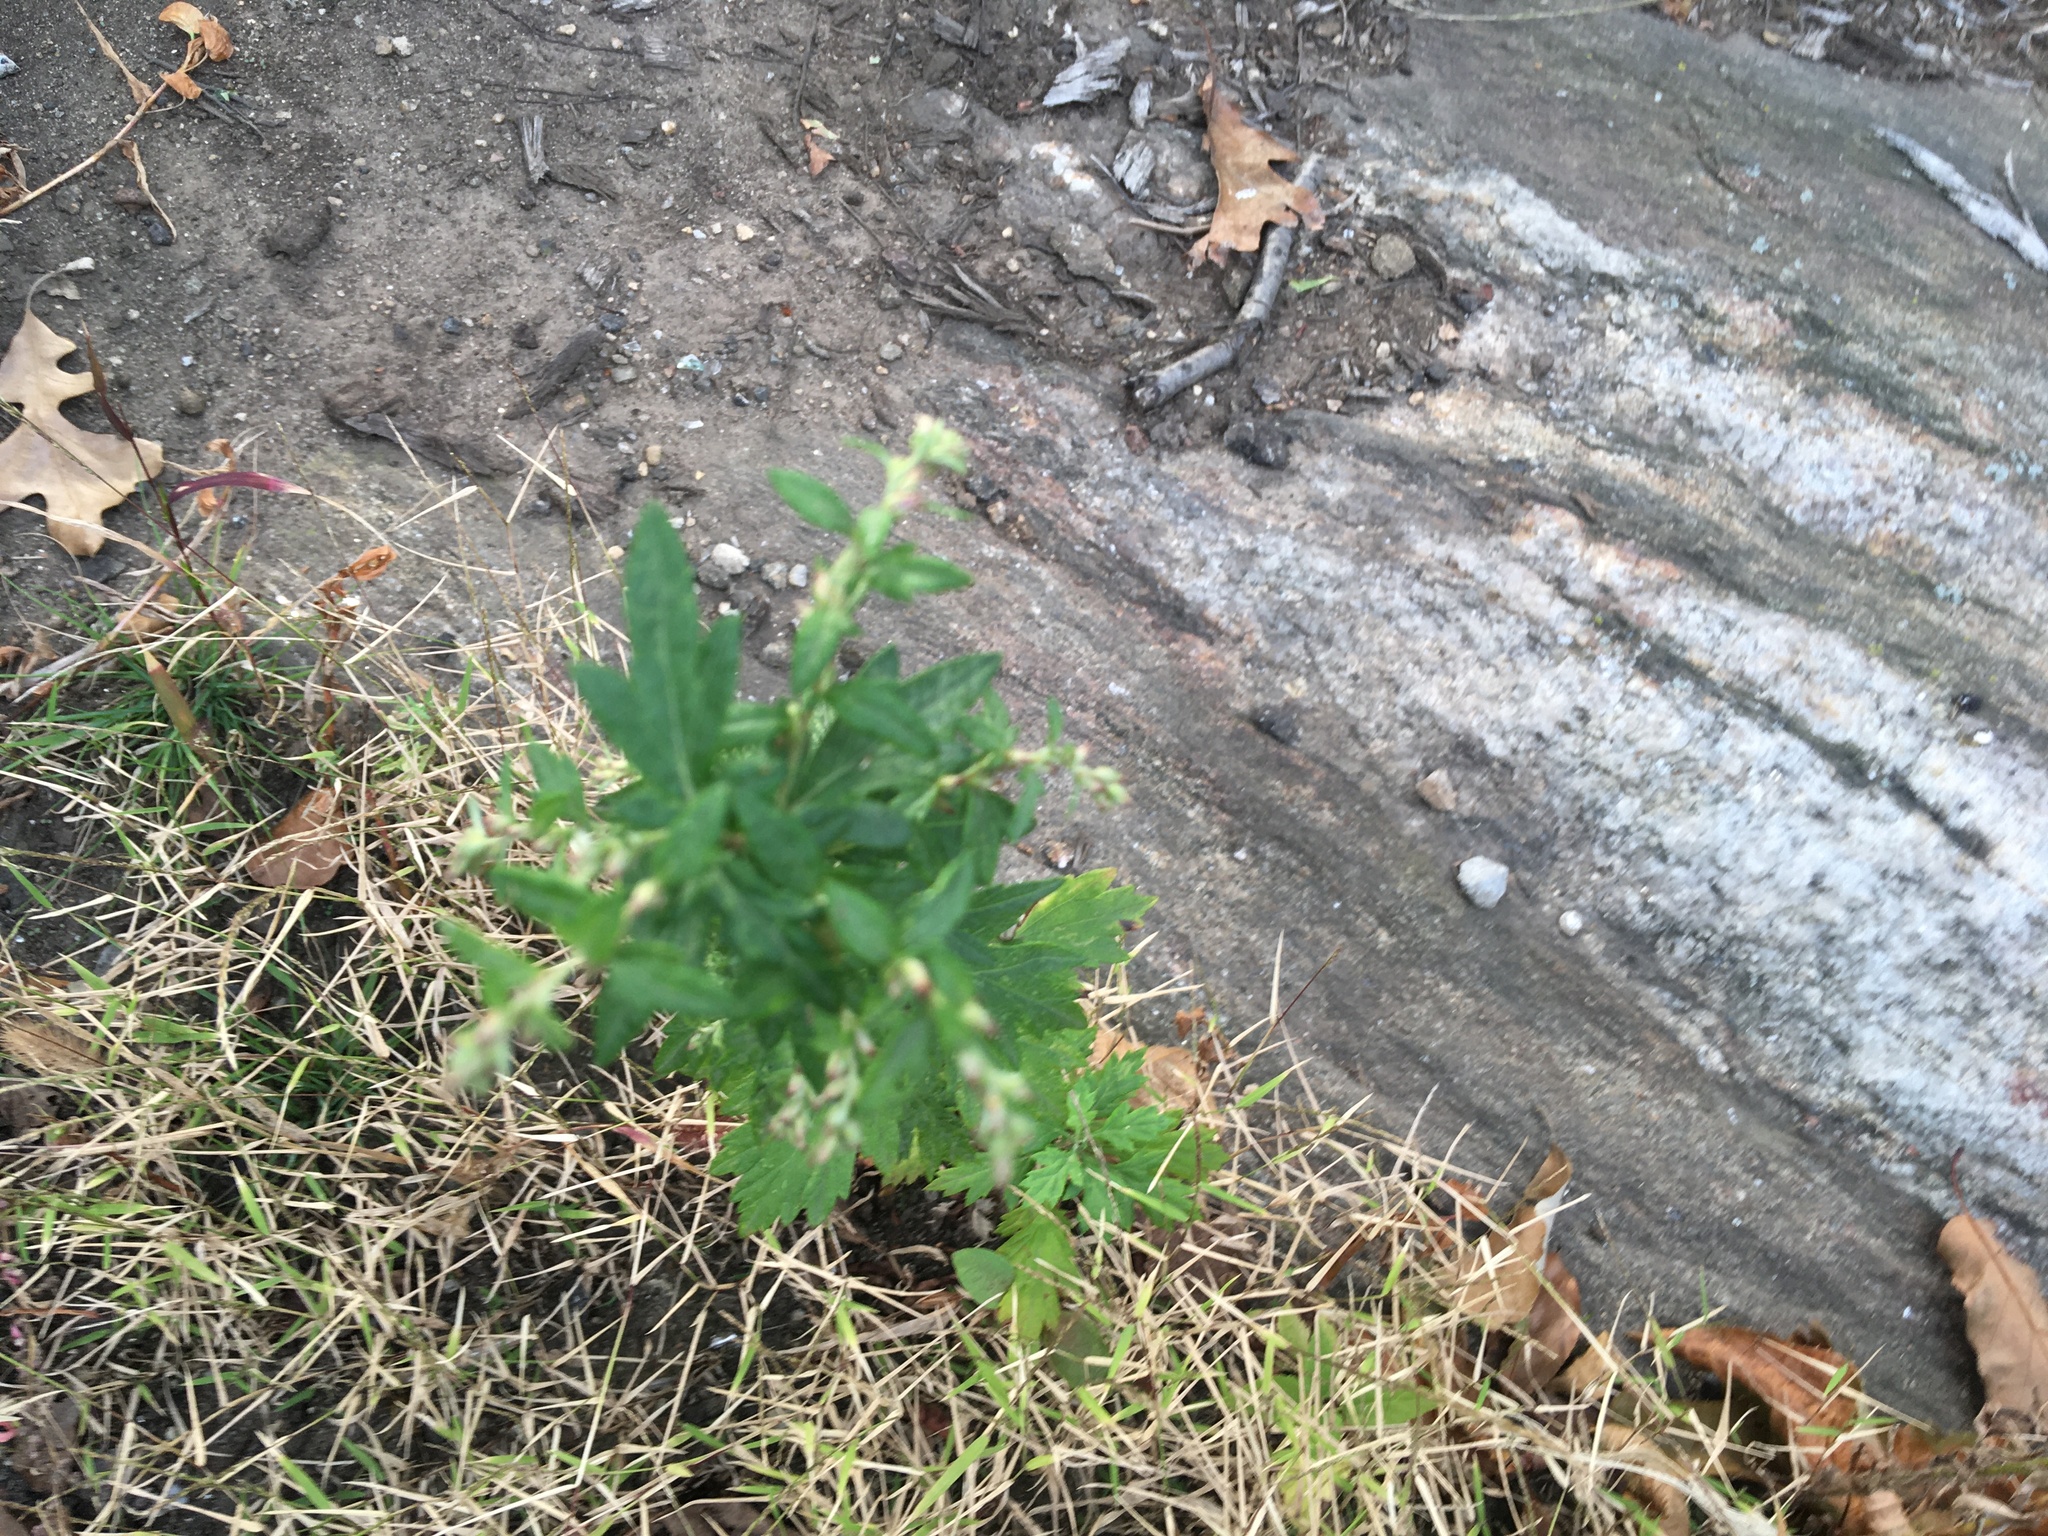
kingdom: Plantae
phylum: Tracheophyta
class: Magnoliopsida
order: Asterales
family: Asteraceae
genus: Artemisia
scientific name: Artemisia vulgaris
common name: Mugwort
